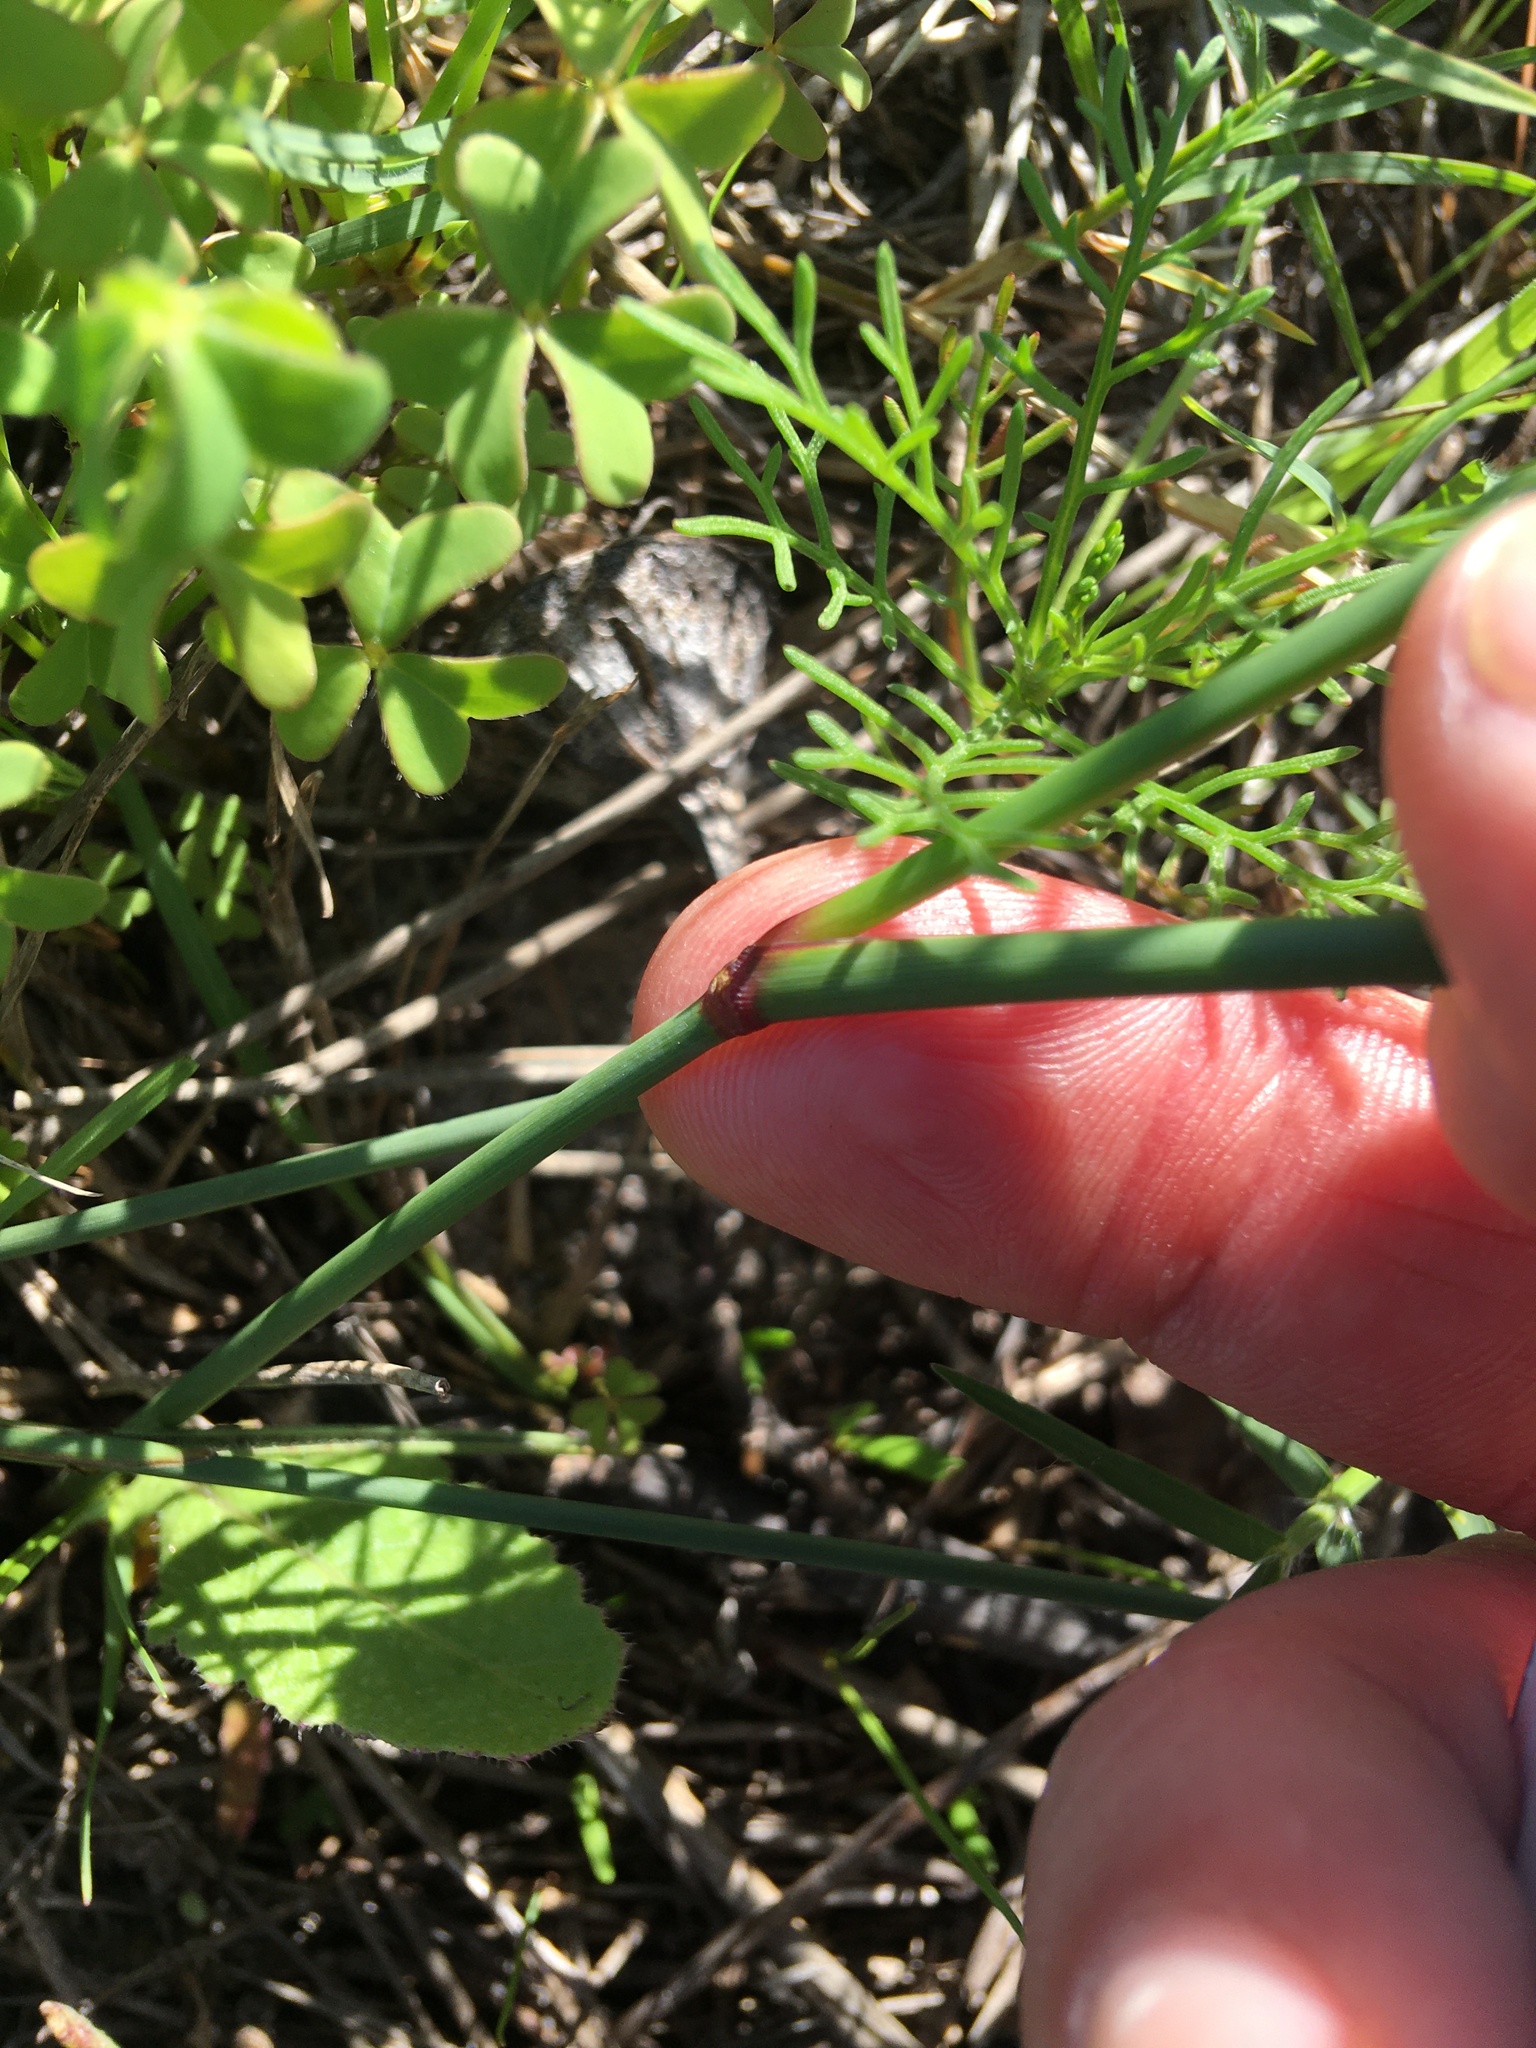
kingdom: Plantae
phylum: Tracheophyta
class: Liliopsida
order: Poales
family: Poaceae
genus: Ehrharta
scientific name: Ehrharta villosa
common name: Pyp grass
